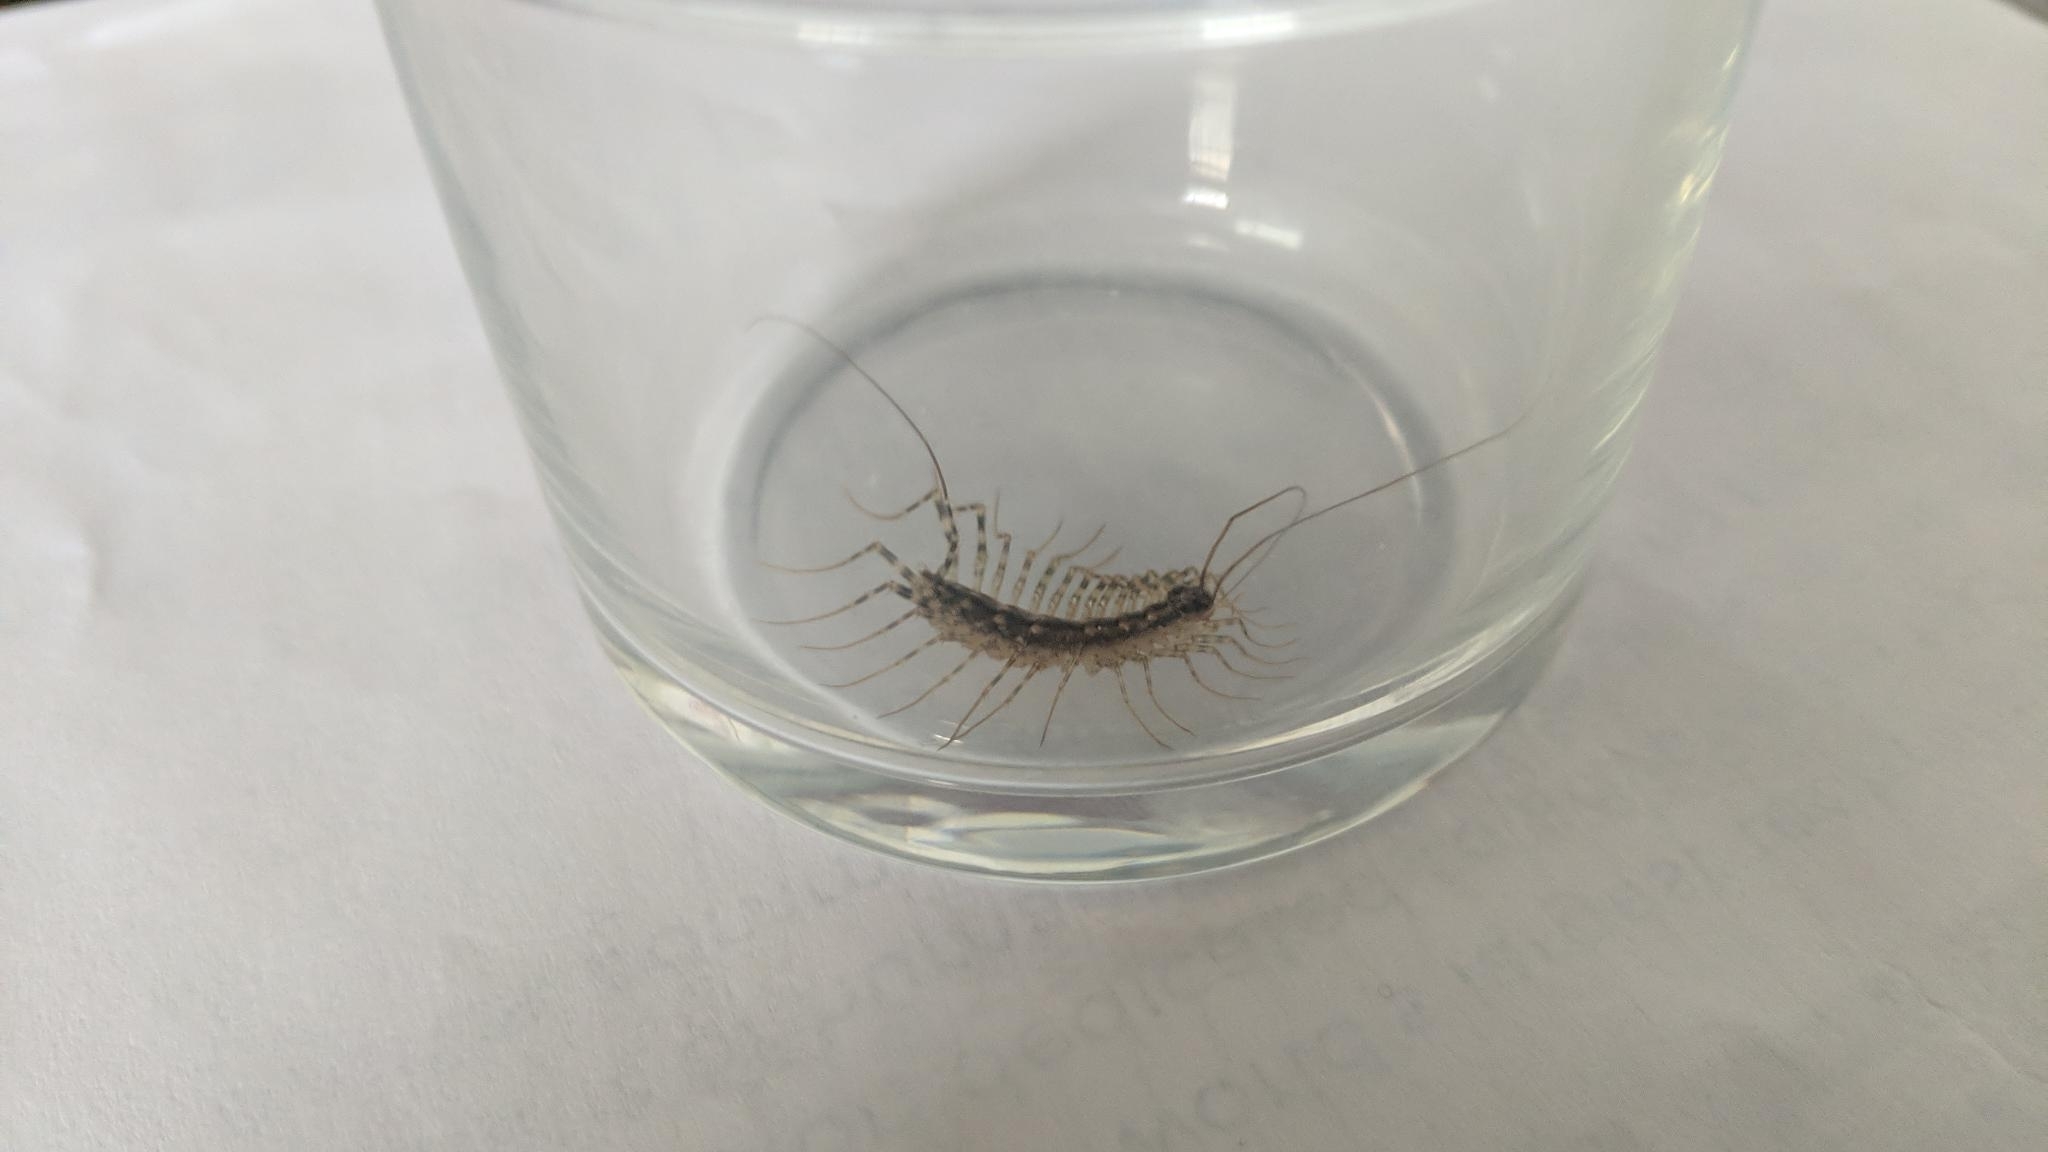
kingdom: Animalia
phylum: Arthropoda
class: Chilopoda
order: Scutigeromorpha
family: Scutigeridae
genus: Thereuonema
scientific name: Thereuonema tuberculata
